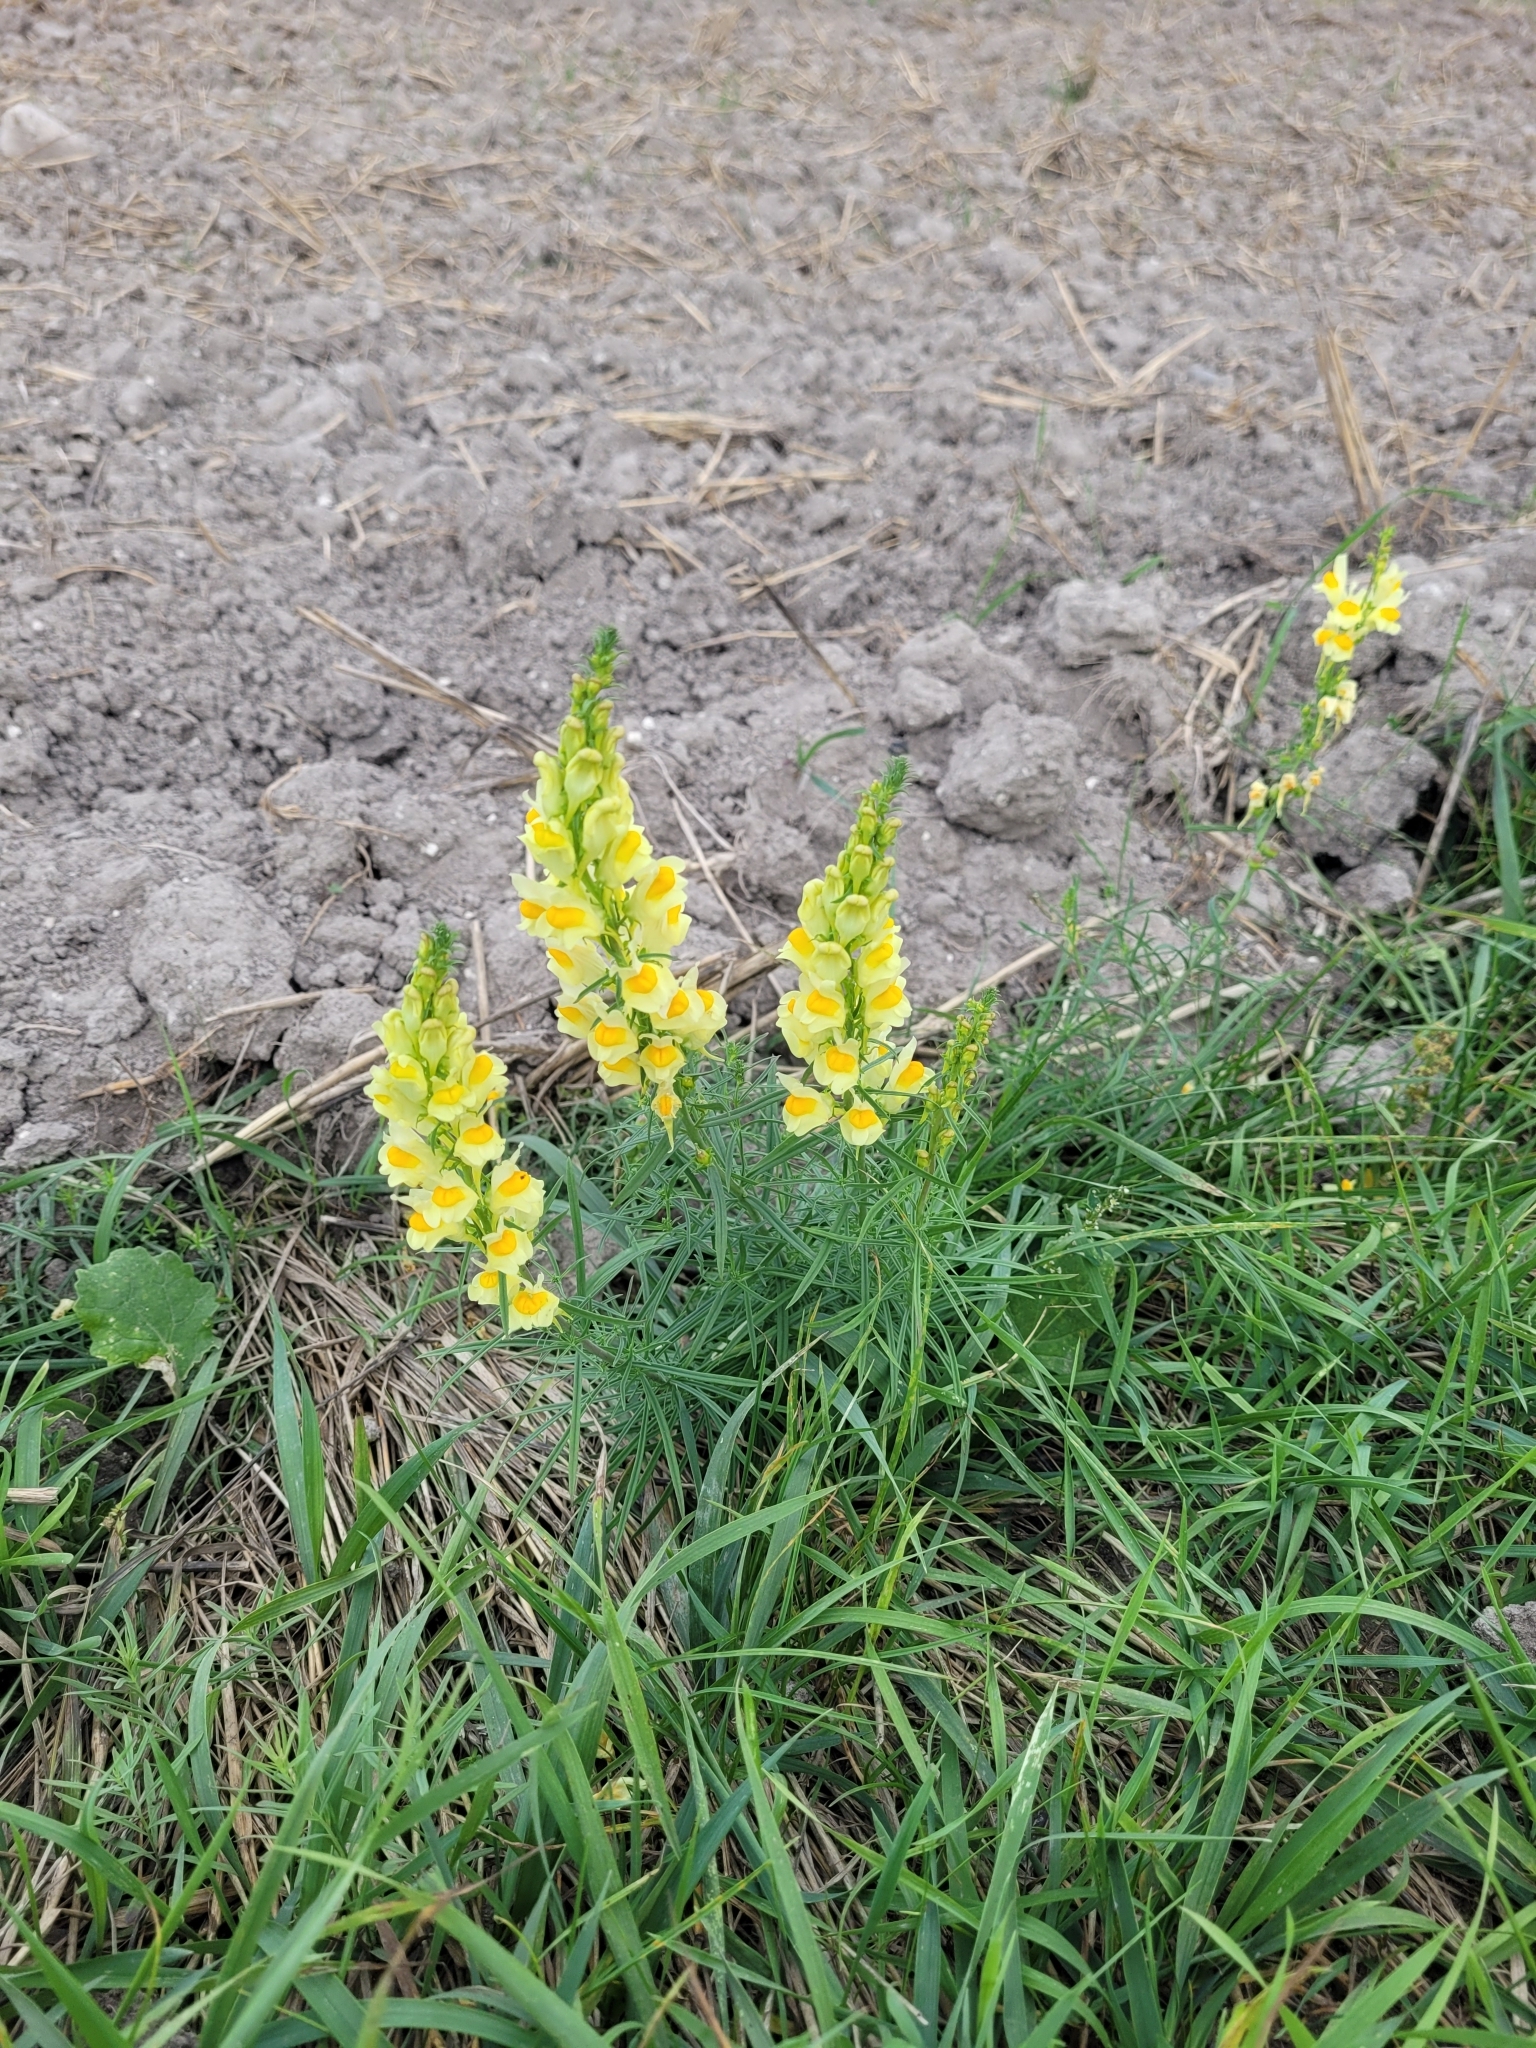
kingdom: Plantae
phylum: Tracheophyta
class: Magnoliopsida
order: Lamiales
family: Plantaginaceae
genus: Linaria
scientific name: Linaria vulgaris
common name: Butter and eggs
